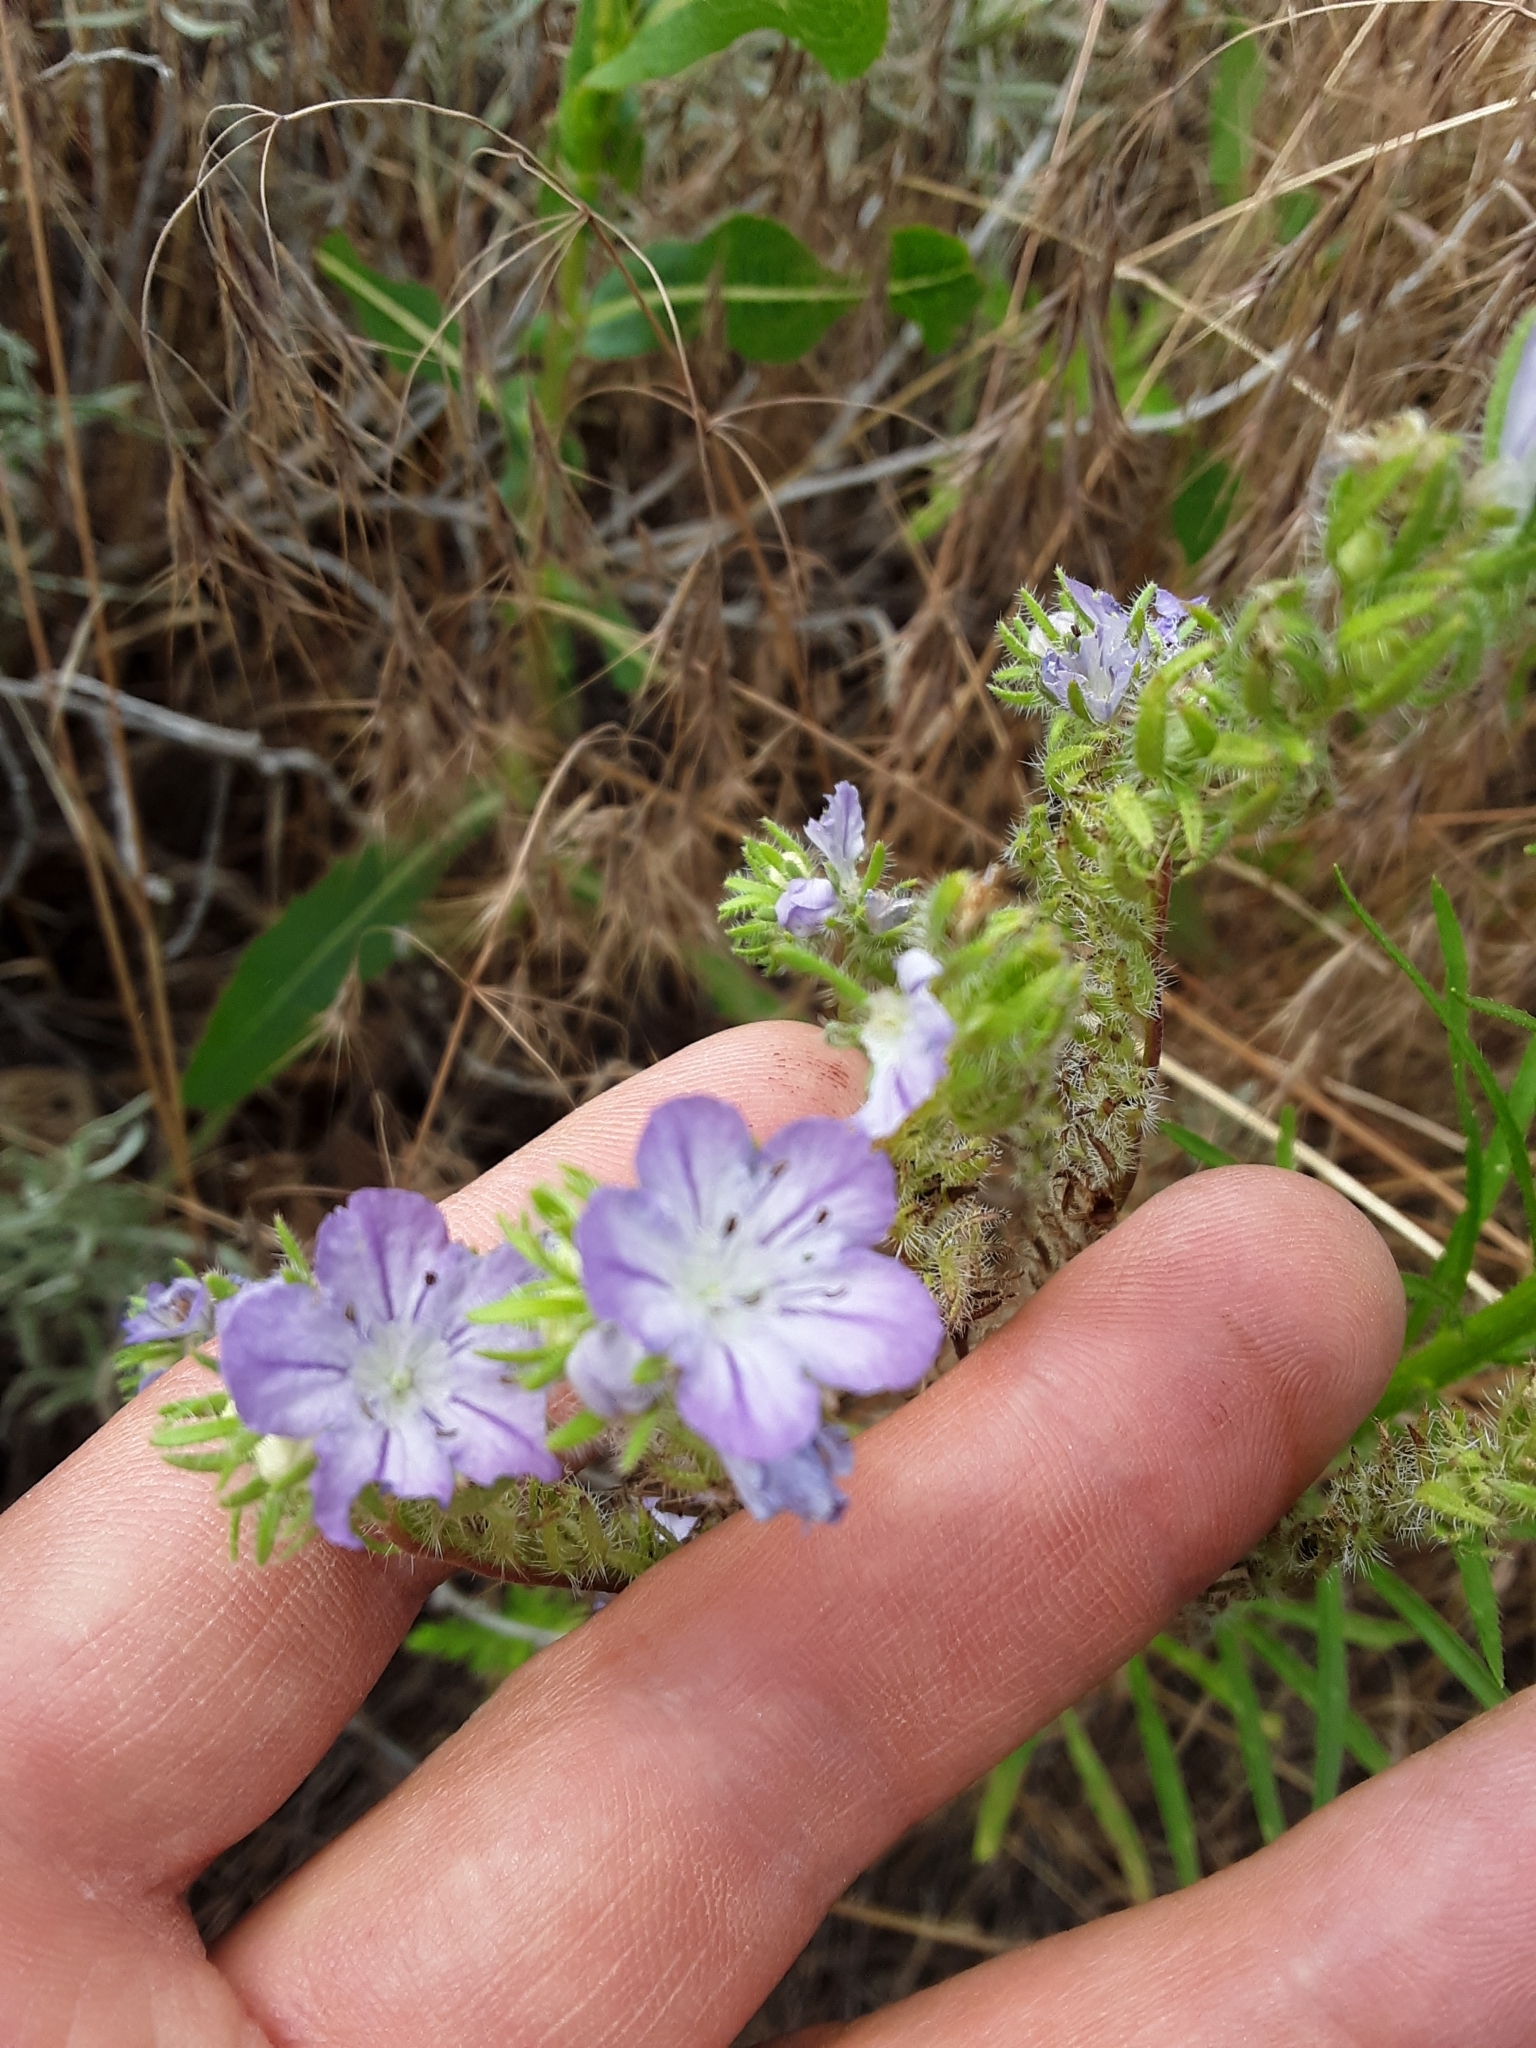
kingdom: Plantae
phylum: Tracheophyta
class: Magnoliopsida
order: Boraginales
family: Hydrophyllaceae
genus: Phacelia
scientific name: Phacelia linearis
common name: Linear-leaved phacelia
